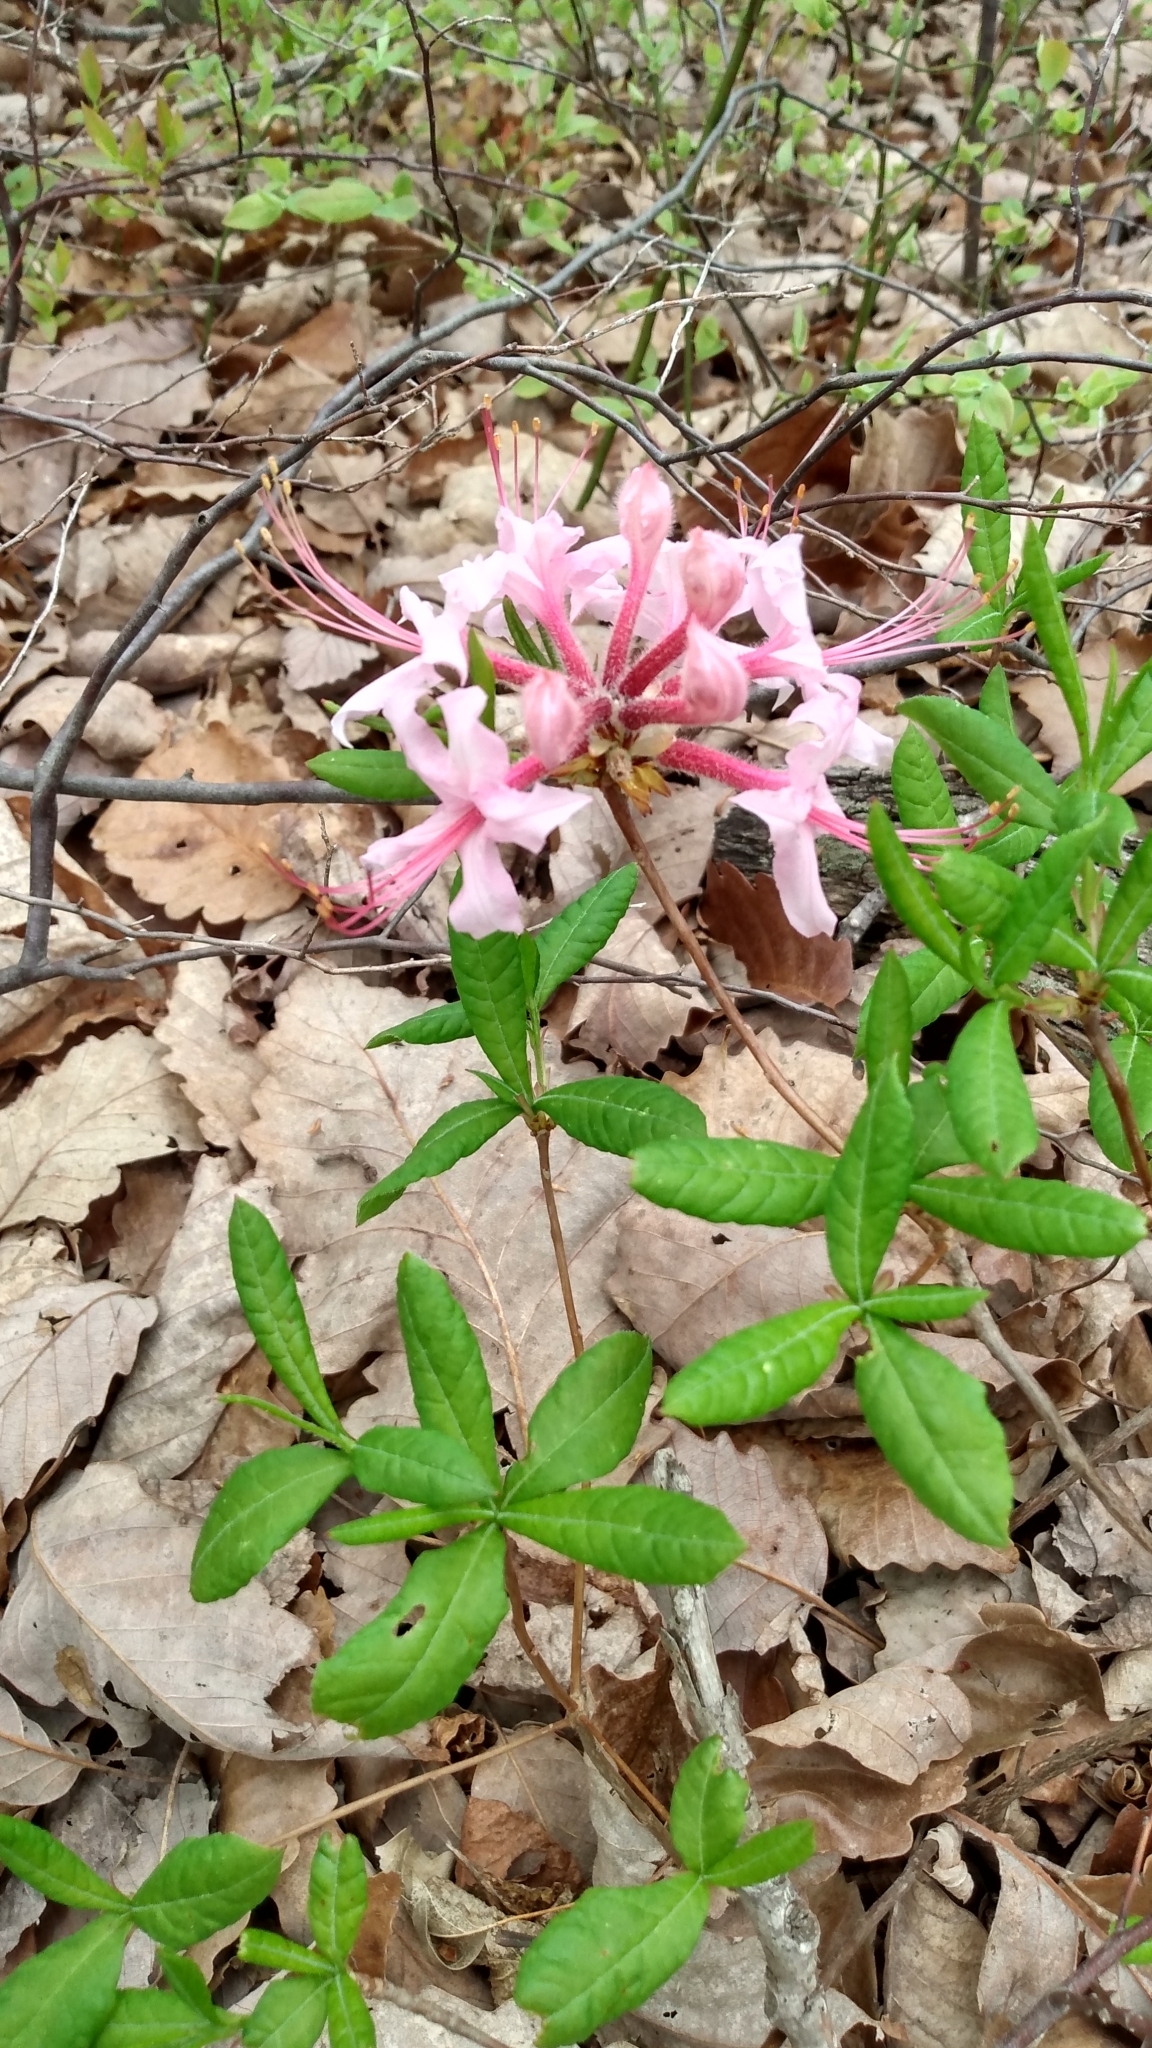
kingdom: Plantae
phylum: Tracheophyta
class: Magnoliopsida
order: Ericales
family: Ericaceae
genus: Rhododendron
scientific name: Rhododendron periclymenoides
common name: Election-pink
